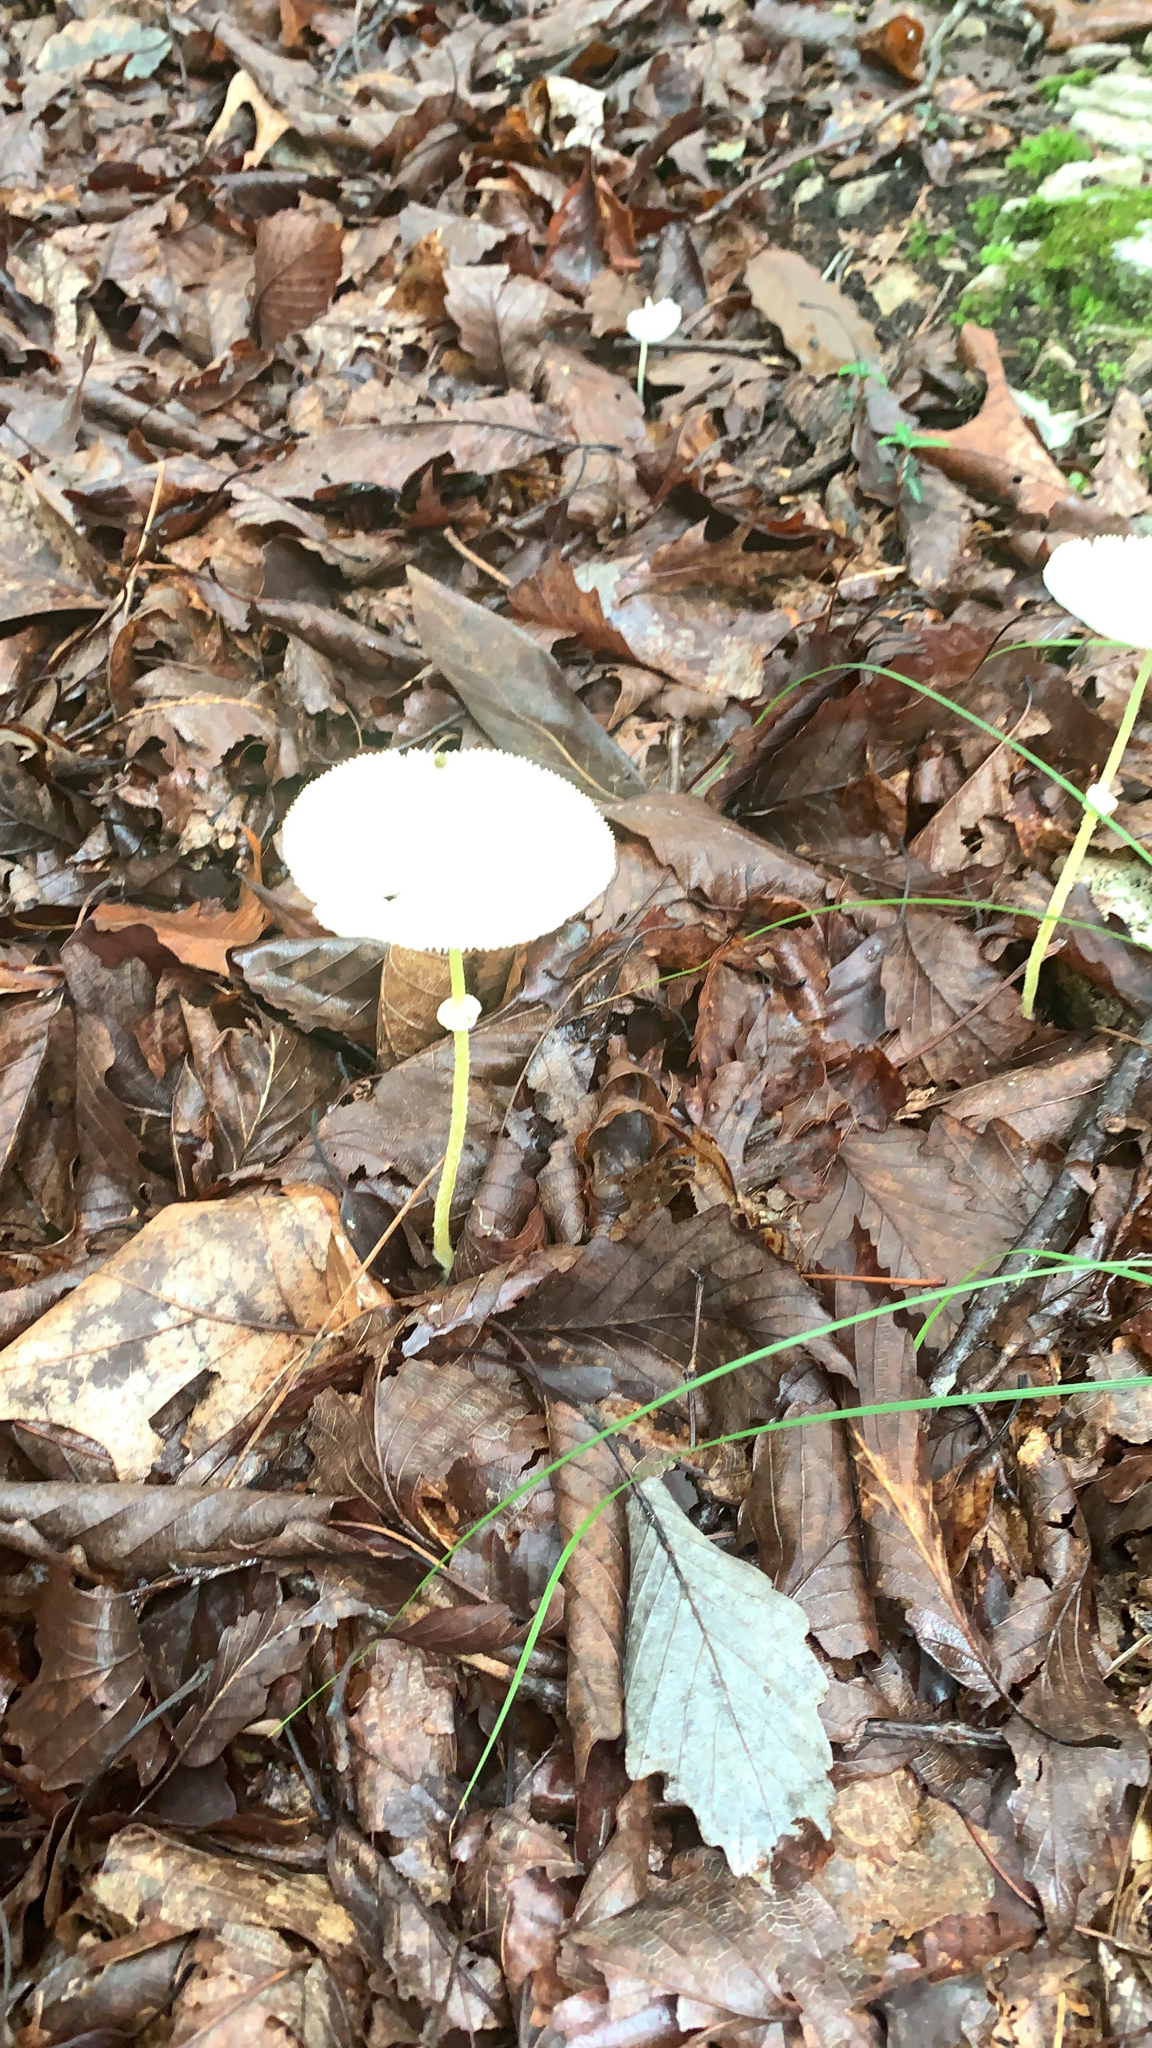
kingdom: Fungi
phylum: Basidiomycota
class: Agaricomycetes
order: Agaricales
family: Agaricaceae
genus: Leucocoprinus
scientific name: Leucocoprinus fragilissimus
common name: Fragile dapperling
